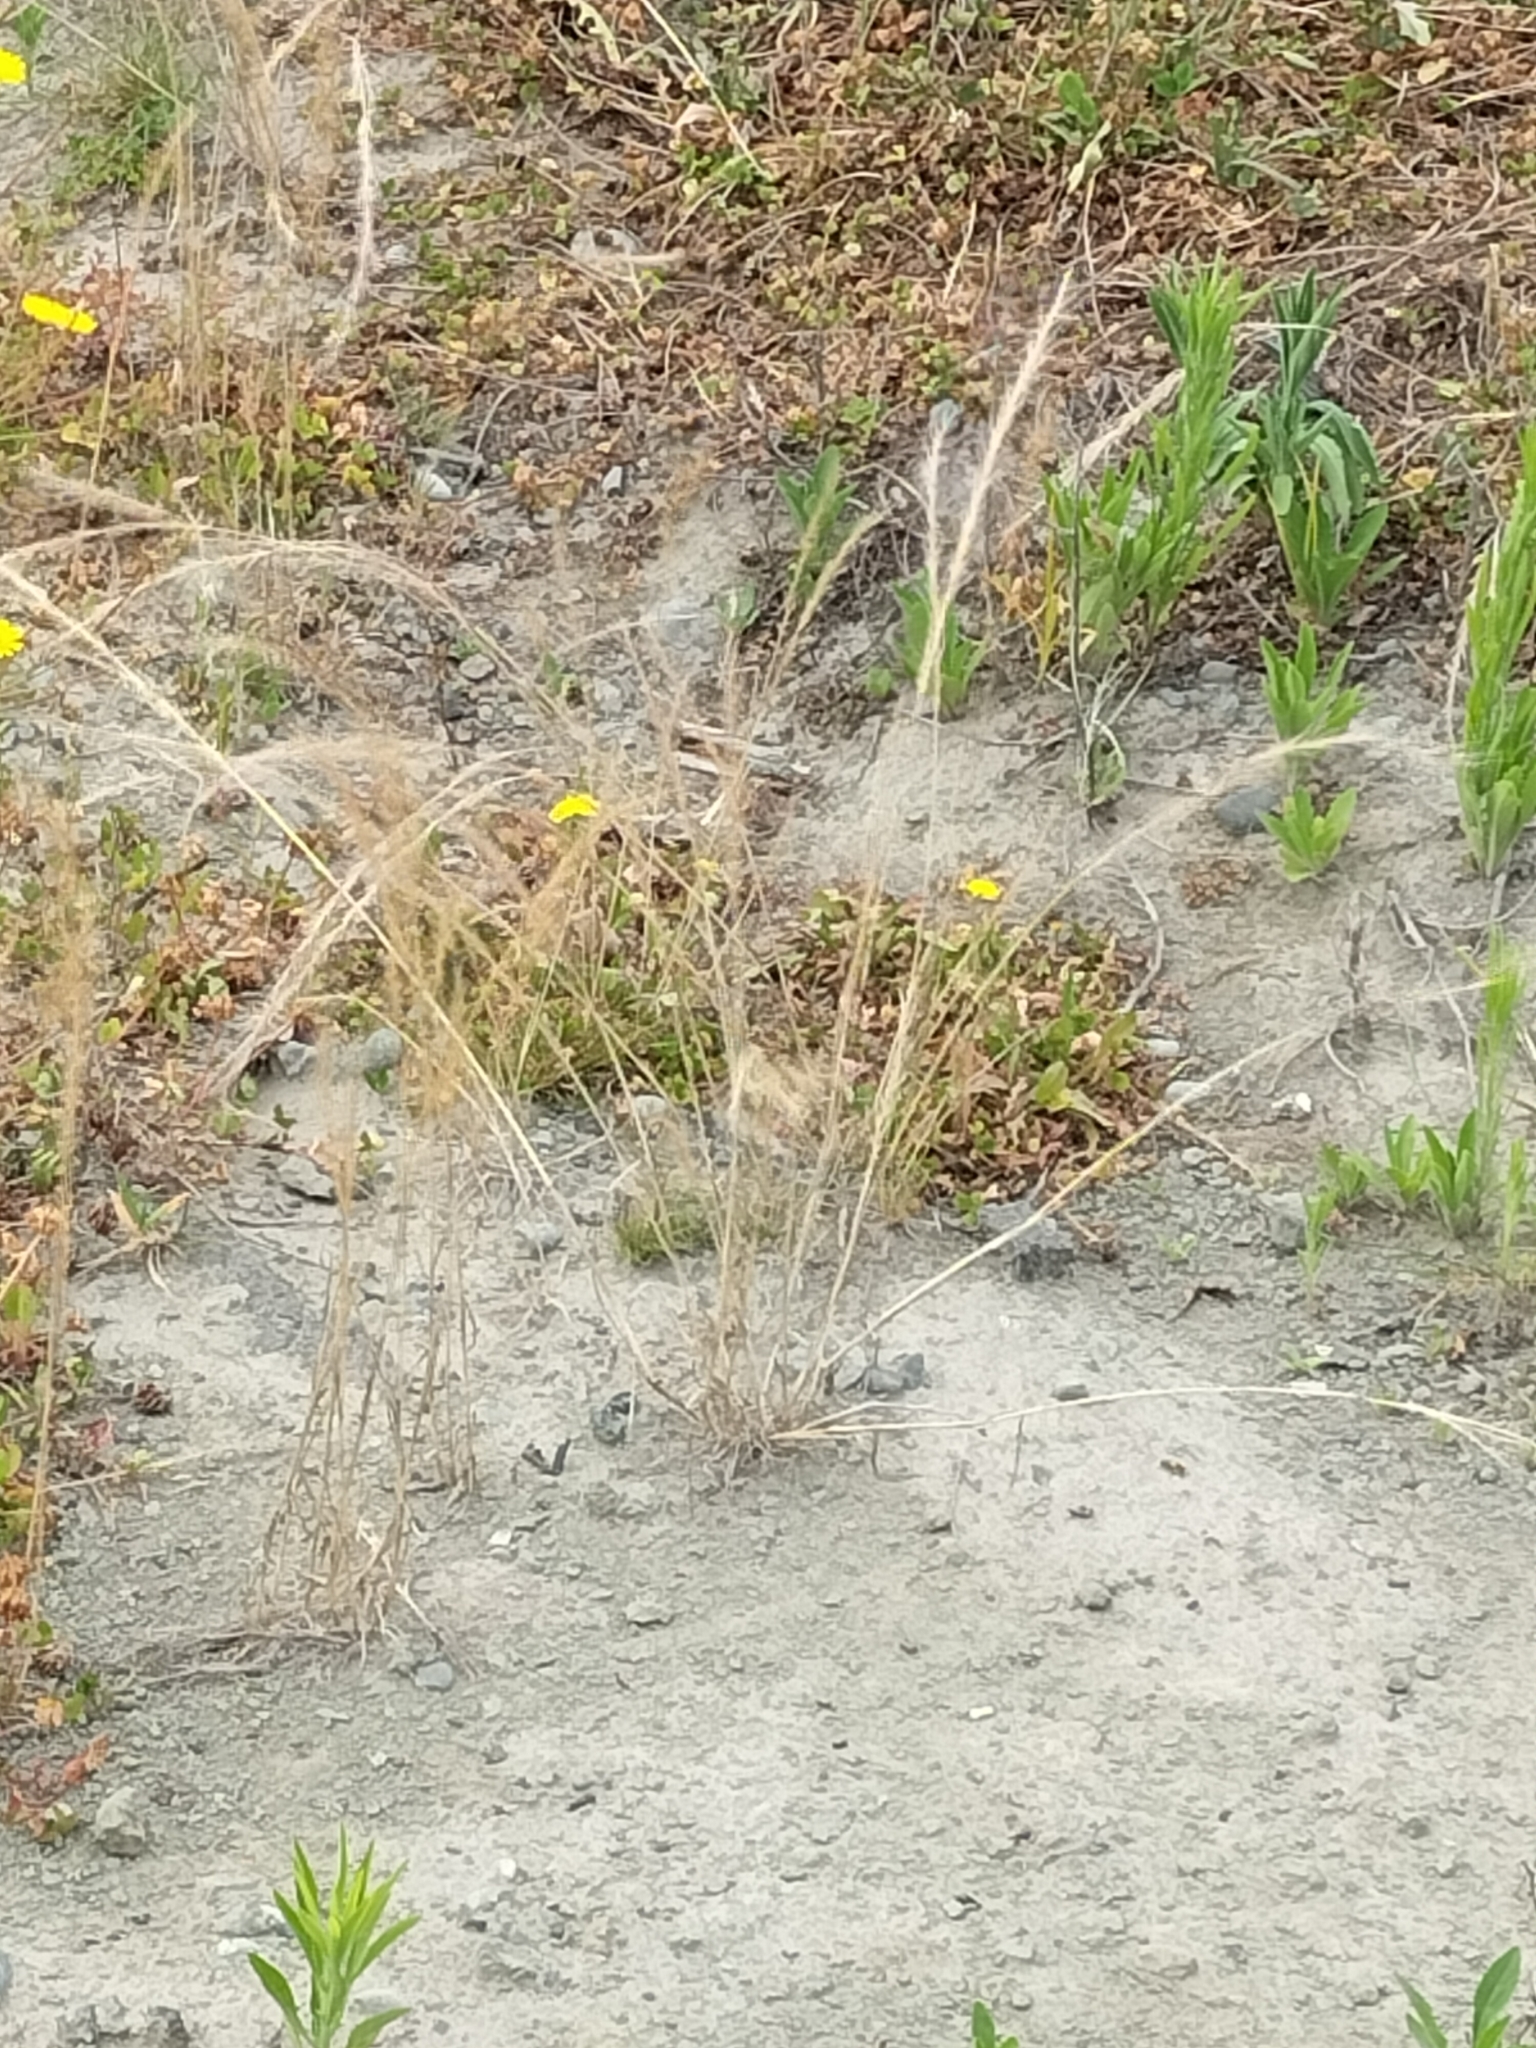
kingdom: Plantae
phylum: Tracheophyta
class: Liliopsida
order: Poales
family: Poaceae
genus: Festuca
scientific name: Festuca myuros
